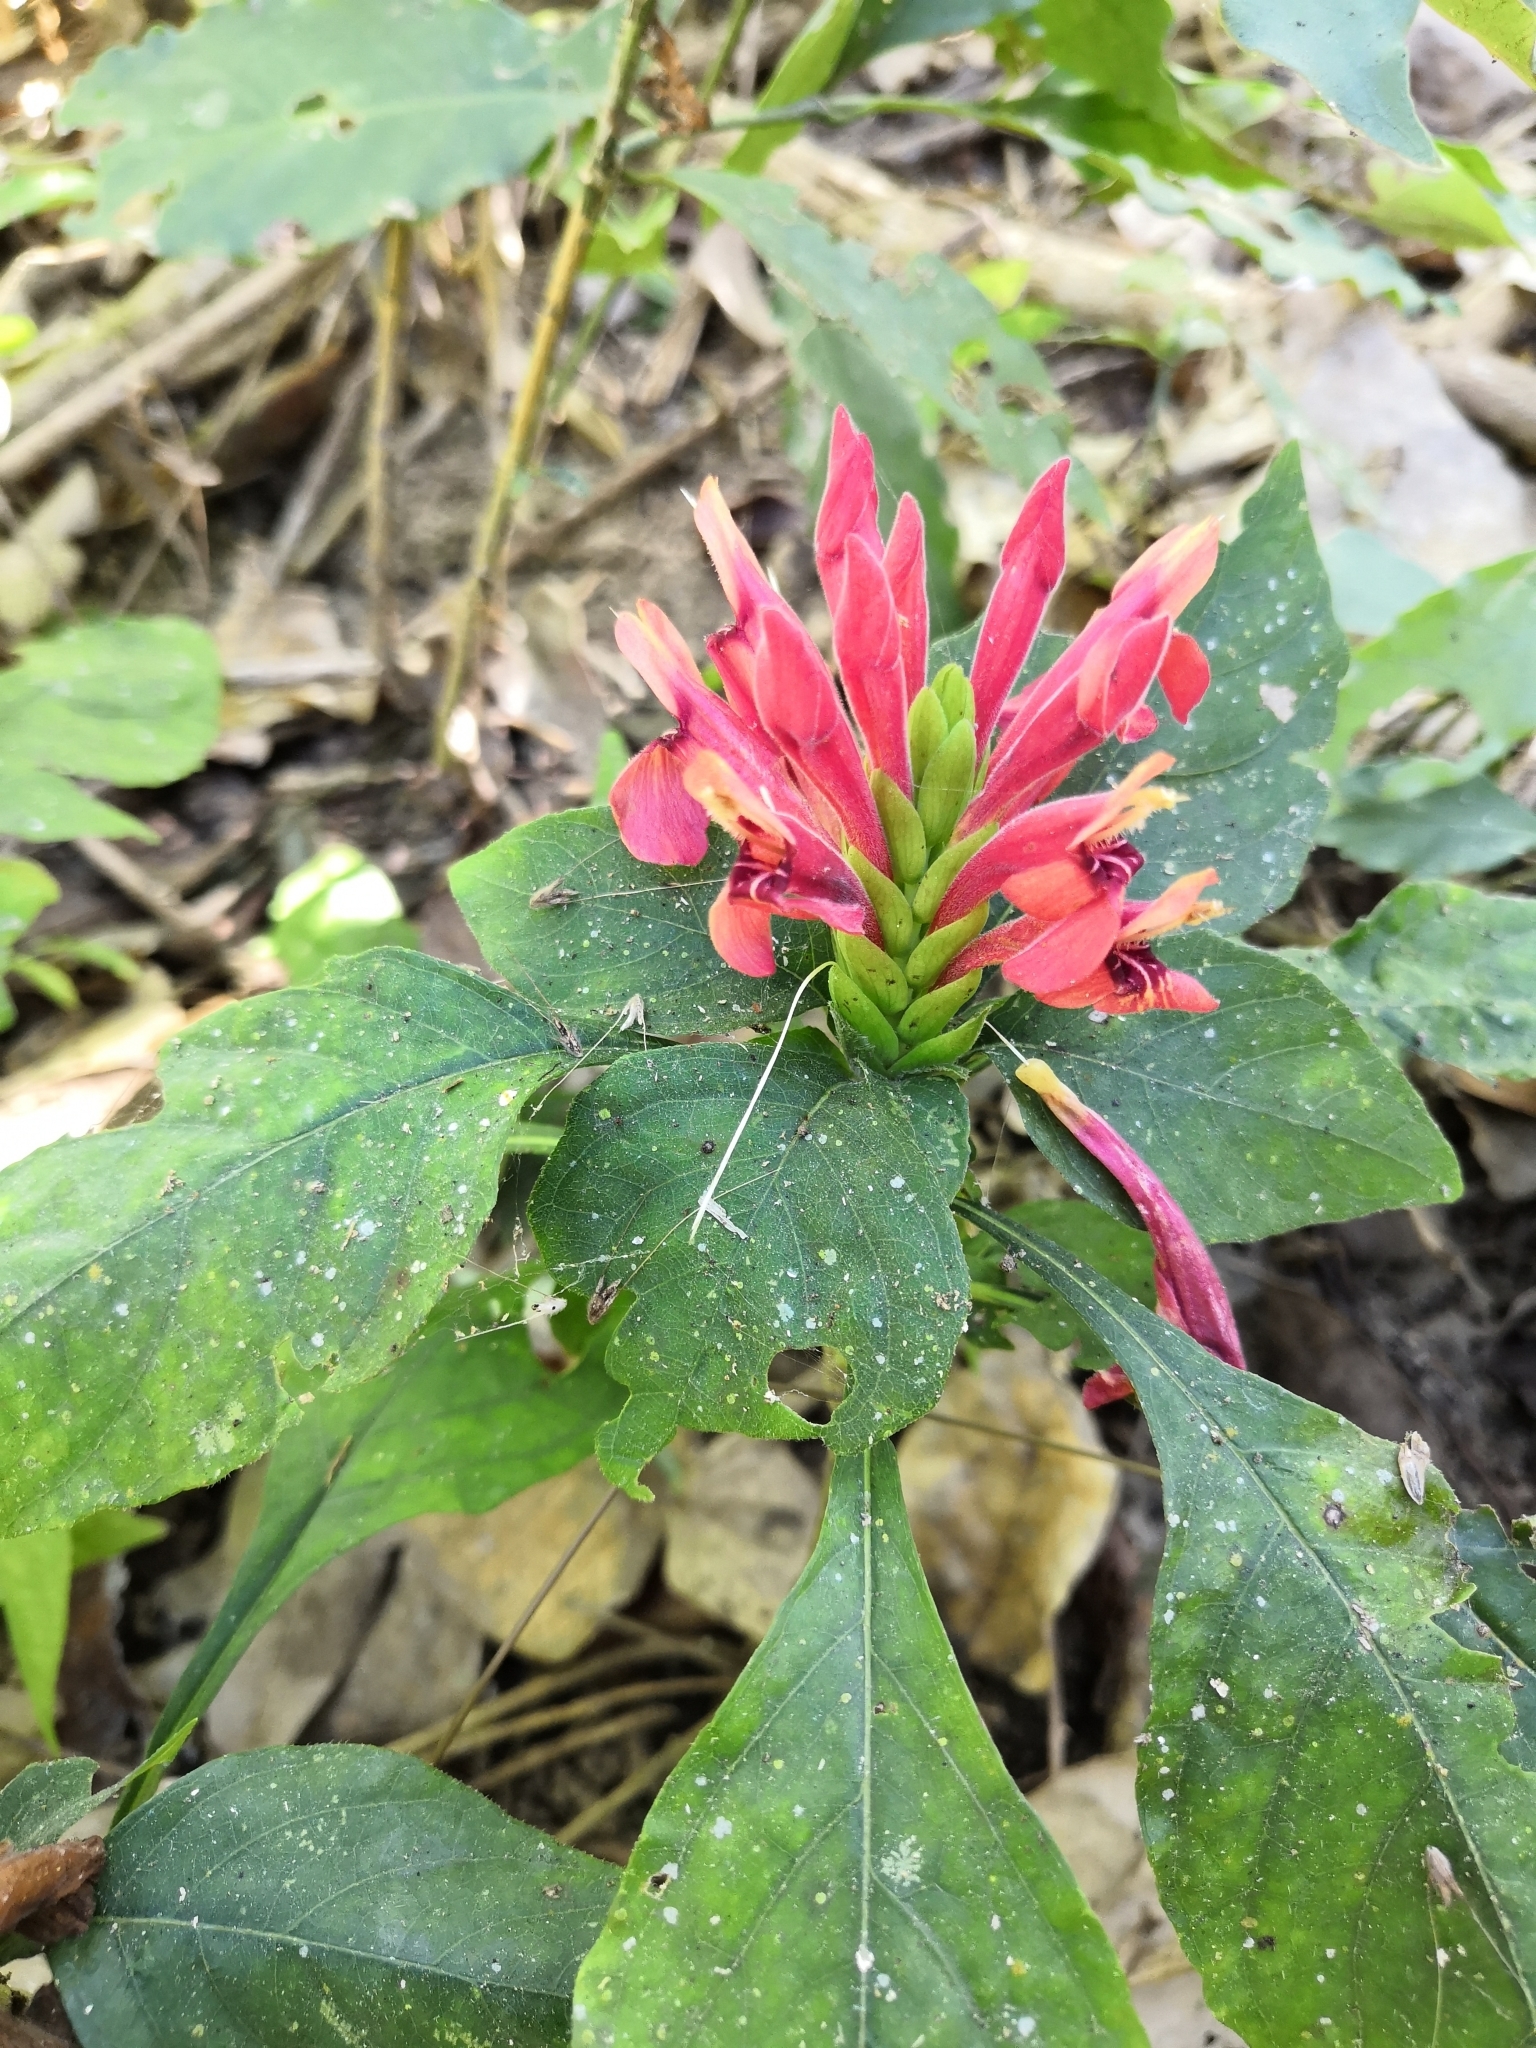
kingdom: Plantae
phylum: Tracheophyta
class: Magnoliopsida
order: Lamiales
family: Acanthaceae
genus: Aphelandra
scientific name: Aphelandra madrensis
